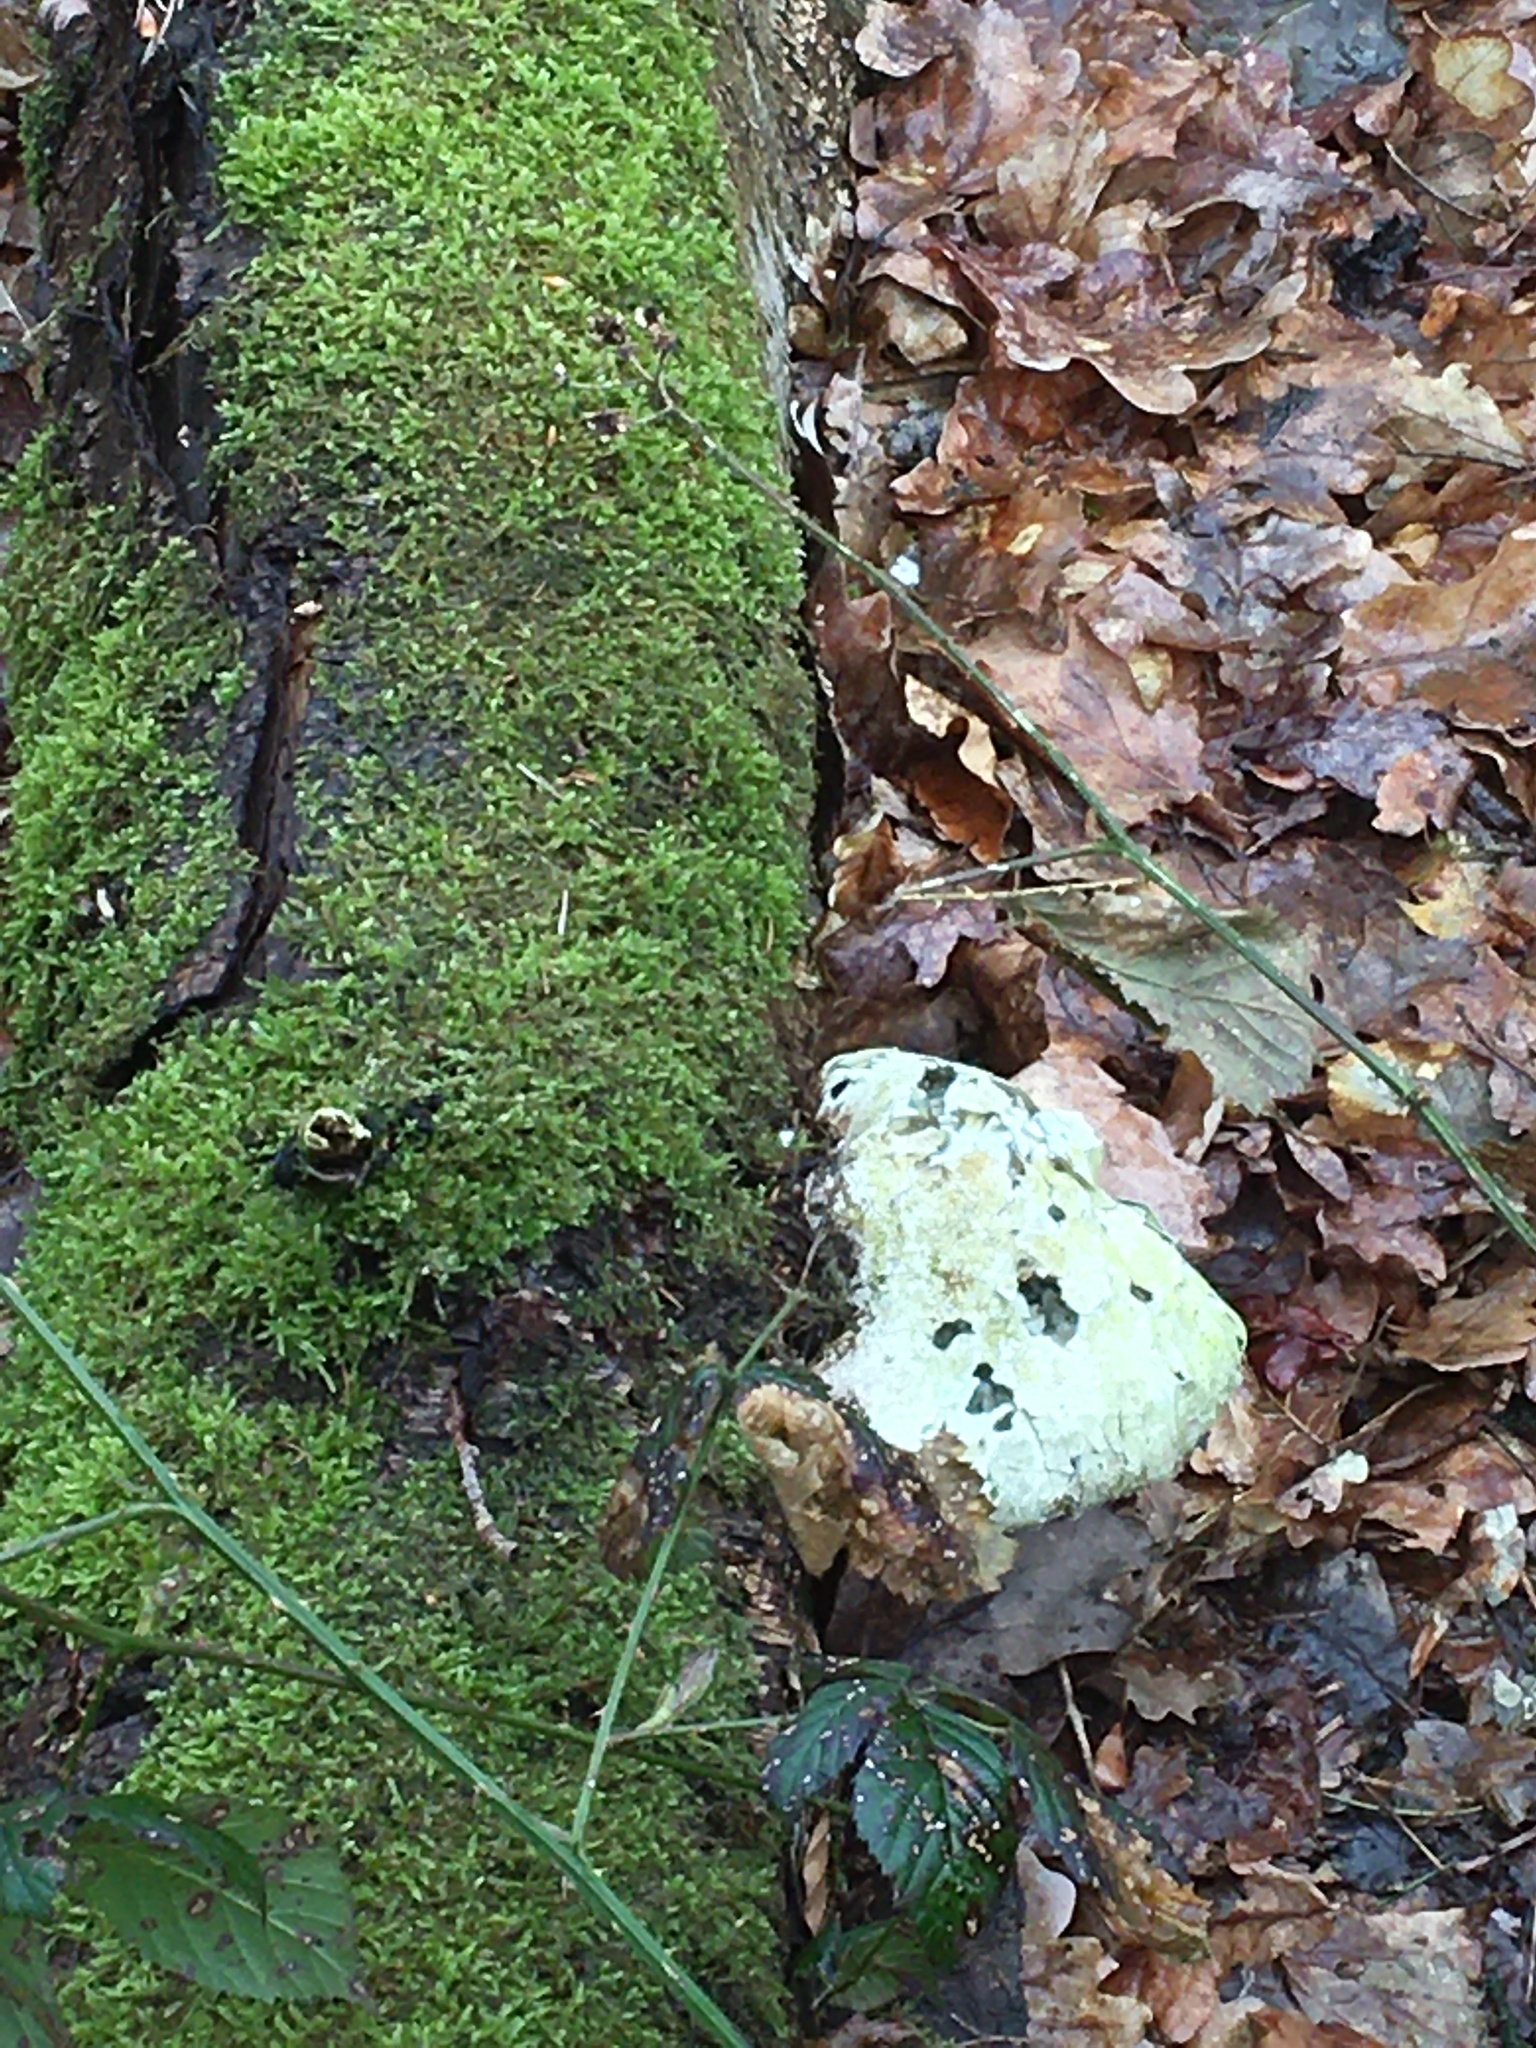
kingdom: Fungi
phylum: Basidiomycota
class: Agaricomycetes
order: Polyporales
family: Fomitopsidaceae
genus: Fomitopsis
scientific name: Fomitopsis betulina
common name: Birch polypore
